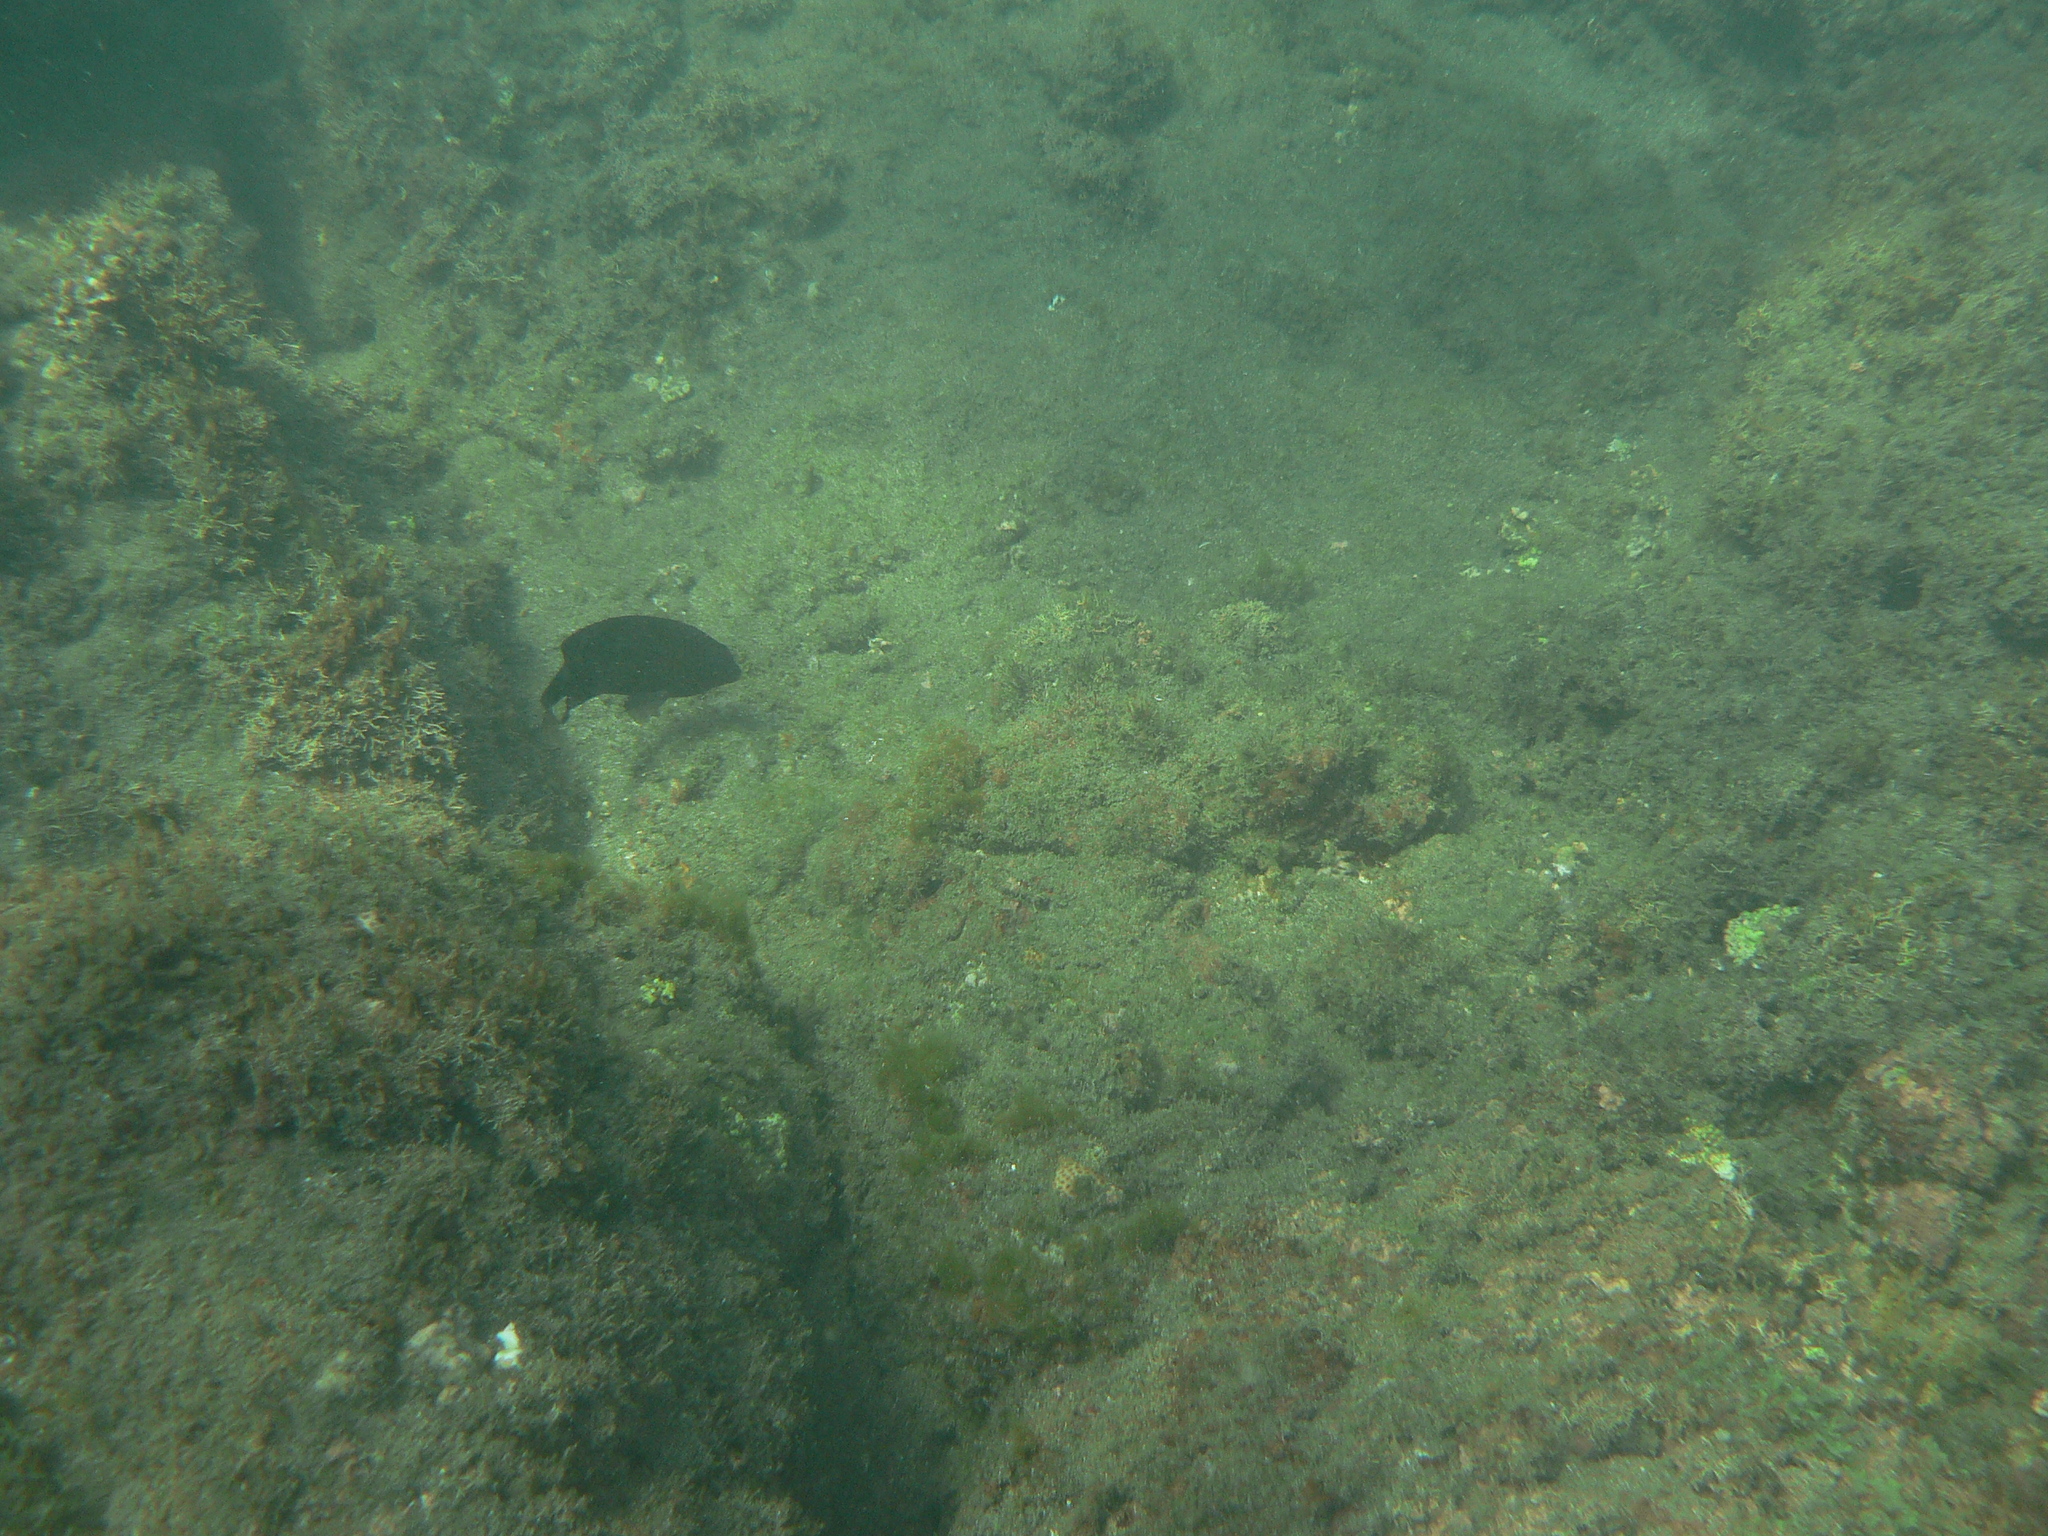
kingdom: Animalia
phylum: Chordata
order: Perciformes
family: Pomacentridae
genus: Stegastes
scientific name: Stegastes imbricatus
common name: Cape verde gregory
